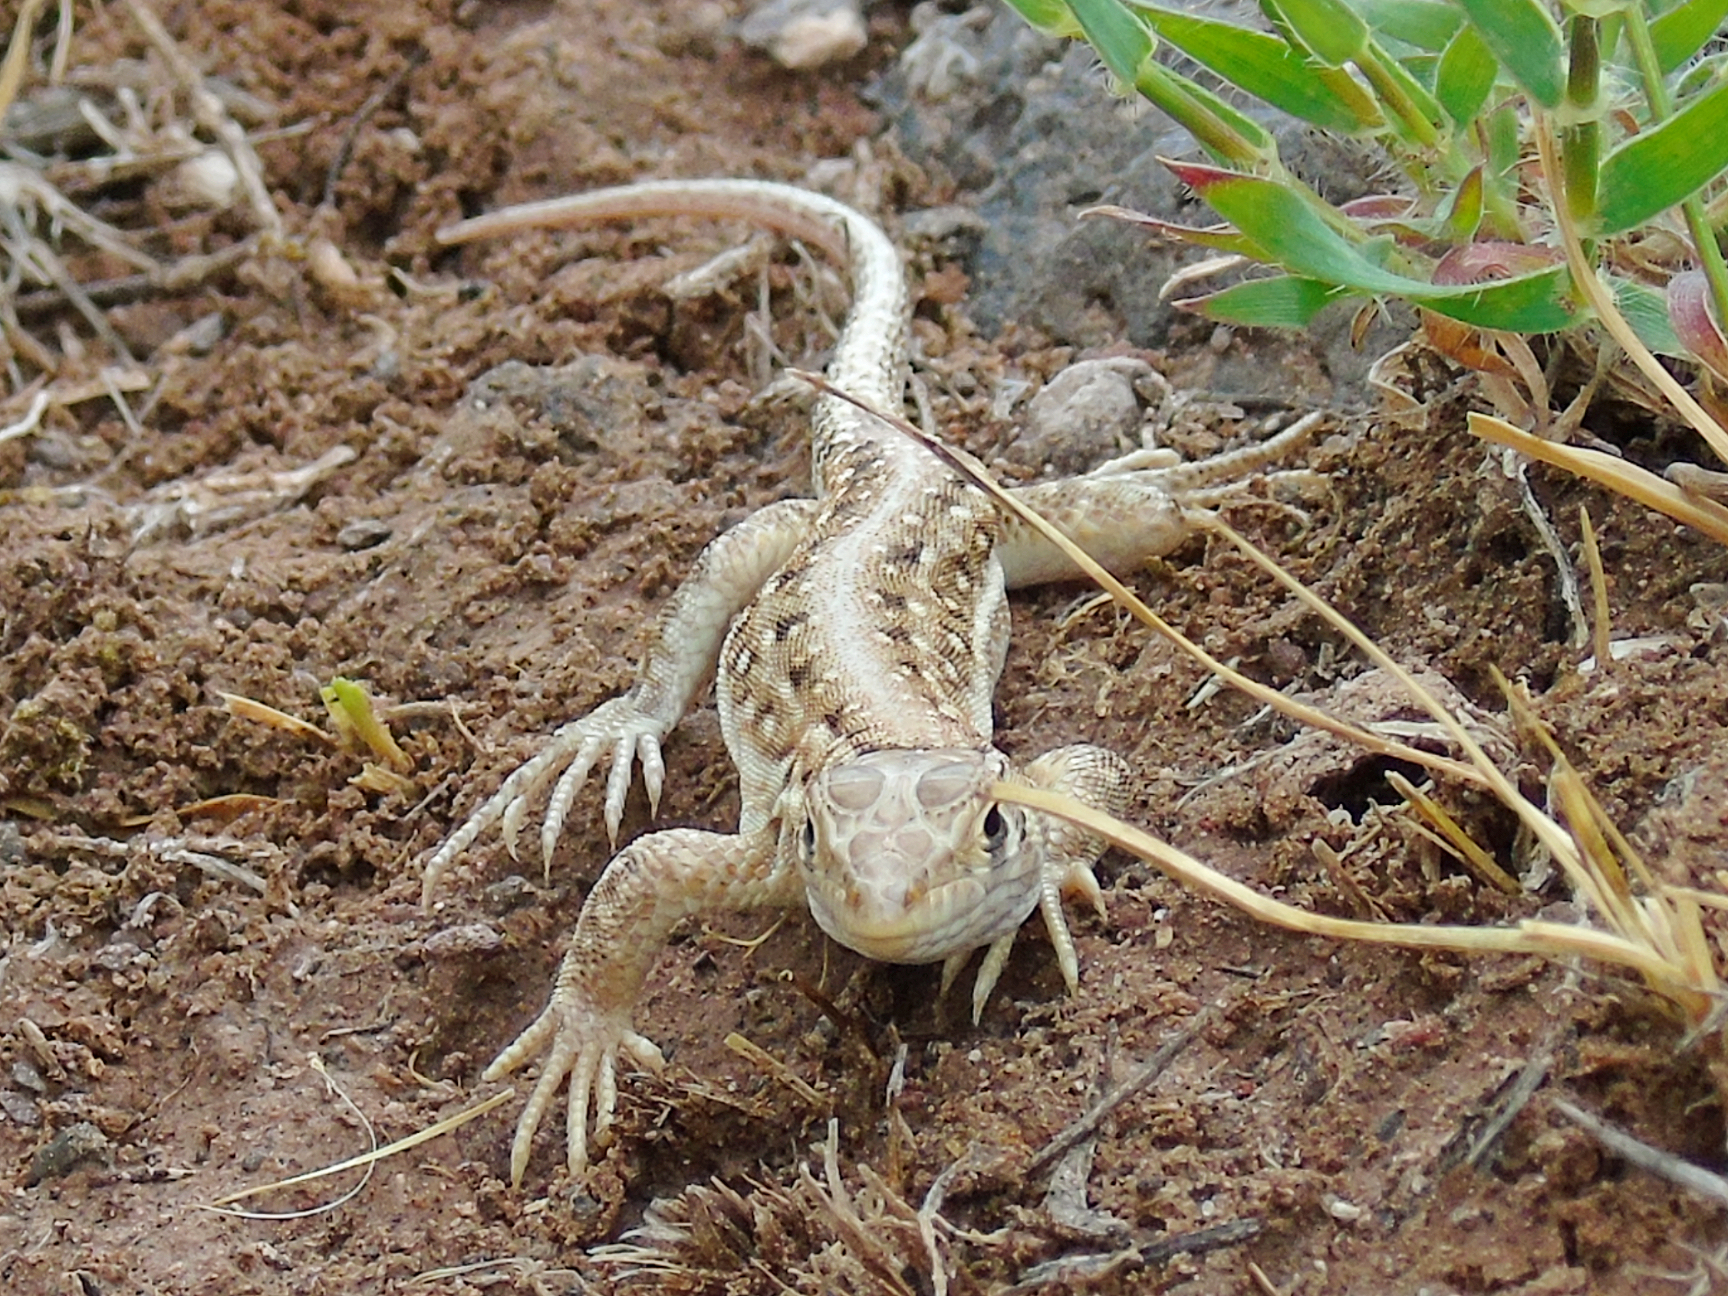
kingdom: Animalia
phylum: Chordata
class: Squamata
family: Lacertidae
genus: Acanthodactylus
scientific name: Acanthodactylus ilgazi
